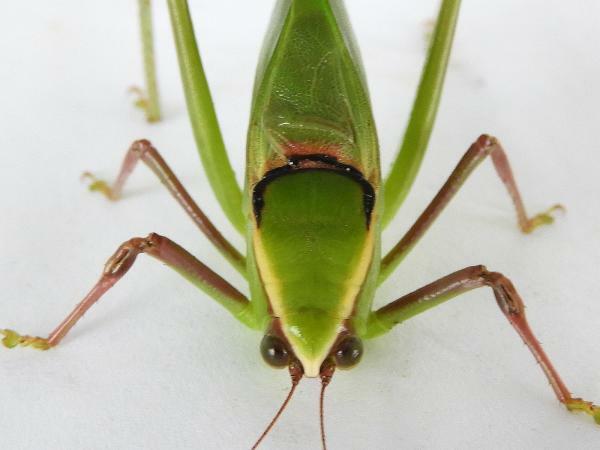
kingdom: Animalia
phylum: Arthropoda
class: Insecta
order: Orthoptera
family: Tettigoniidae
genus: Stilpnochlora
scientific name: Stilpnochlora couloniana
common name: Giant katydid
